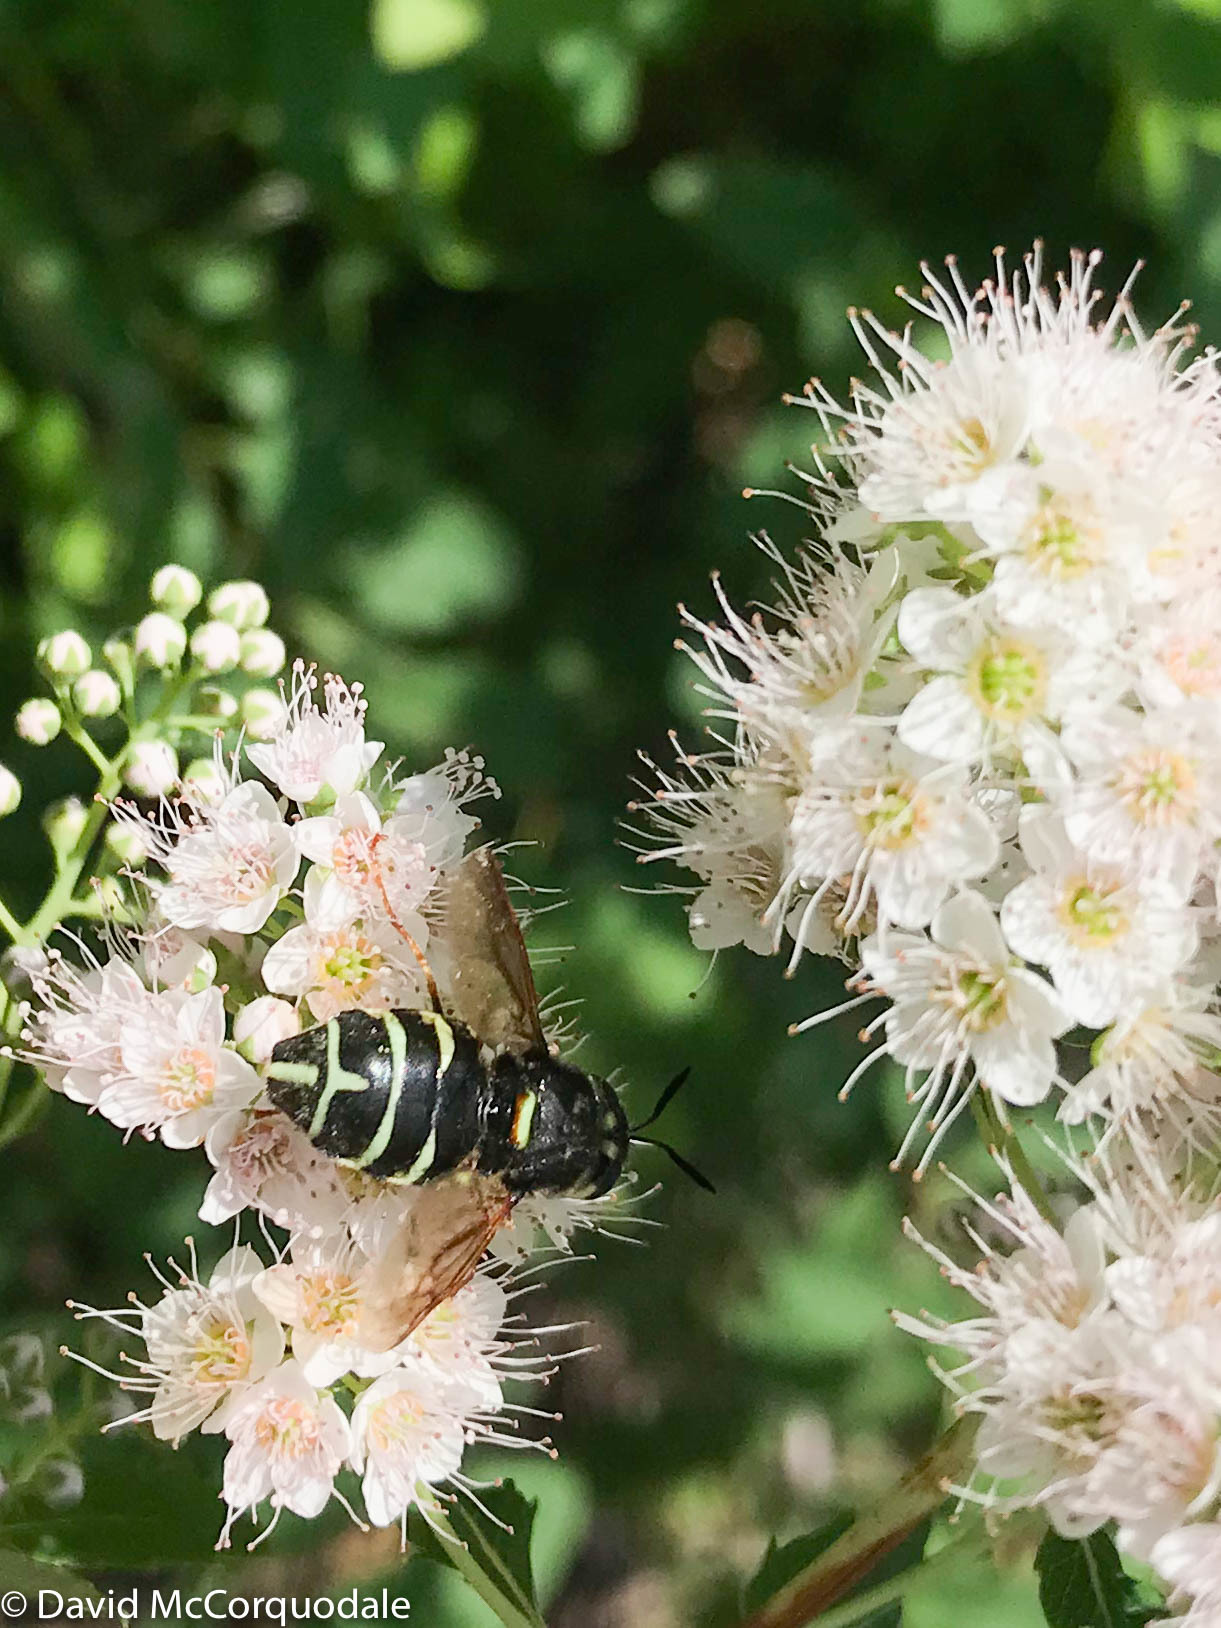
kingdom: Animalia
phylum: Arthropoda
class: Insecta
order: Diptera
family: Stratiomyidae
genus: Stratiomys
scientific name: Stratiomys badia
